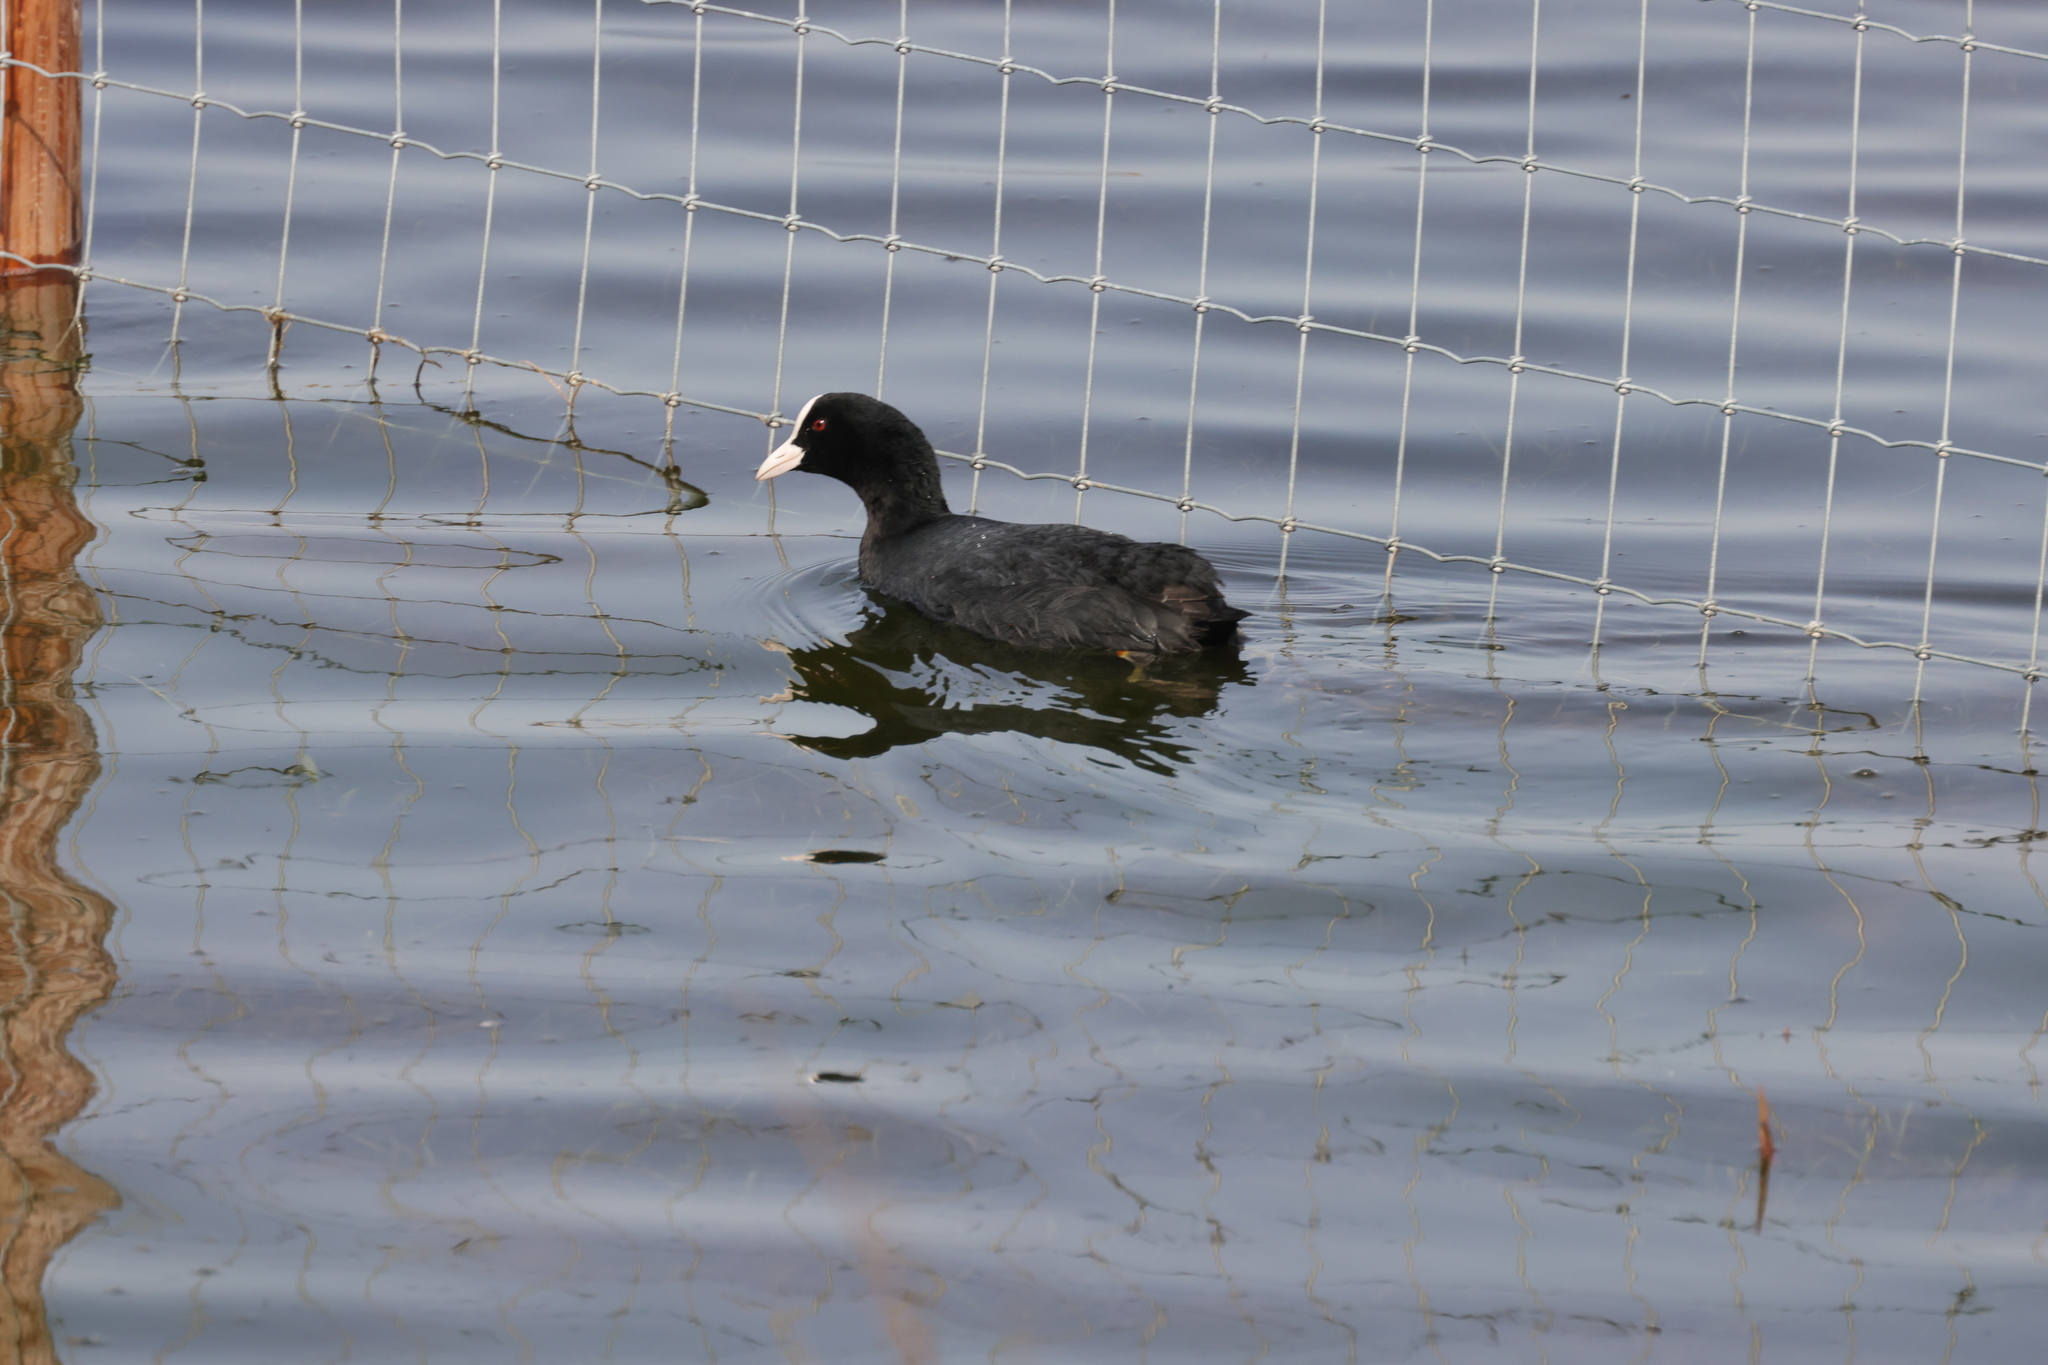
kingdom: Animalia
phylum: Chordata
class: Aves
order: Gruiformes
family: Rallidae
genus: Fulica
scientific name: Fulica atra
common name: Eurasian coot
